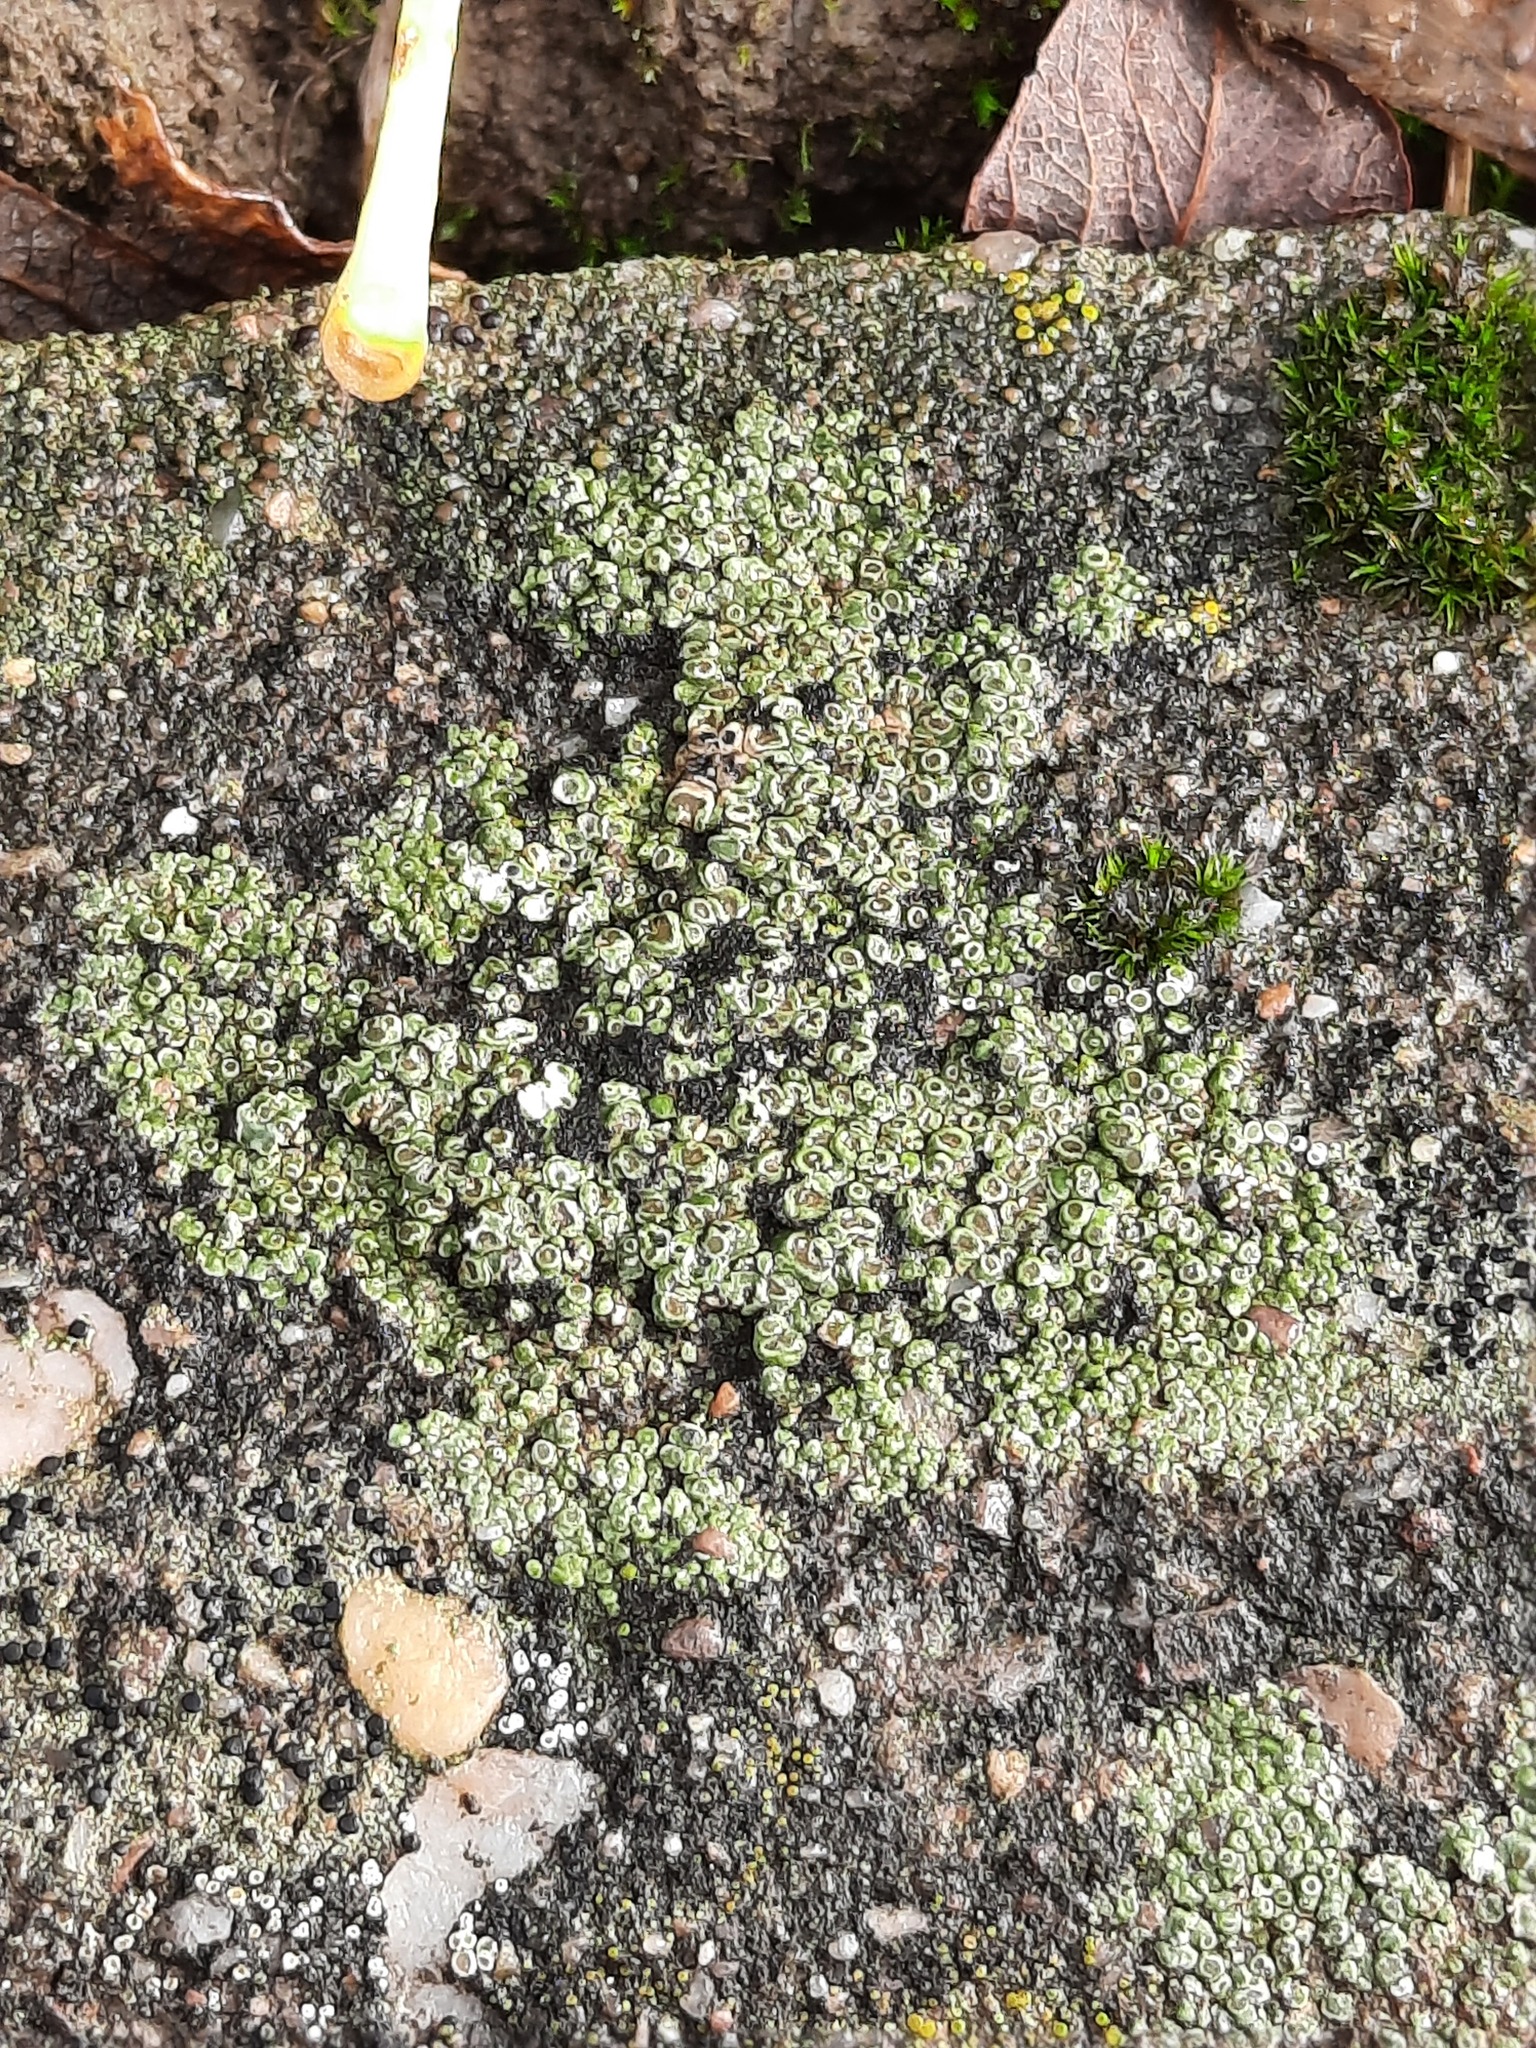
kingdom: Fungi
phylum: Ascomycota
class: Lecanoromycetes
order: Pertusariales
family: Megasporaceae
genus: Circinaria
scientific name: Circinaria contorta
